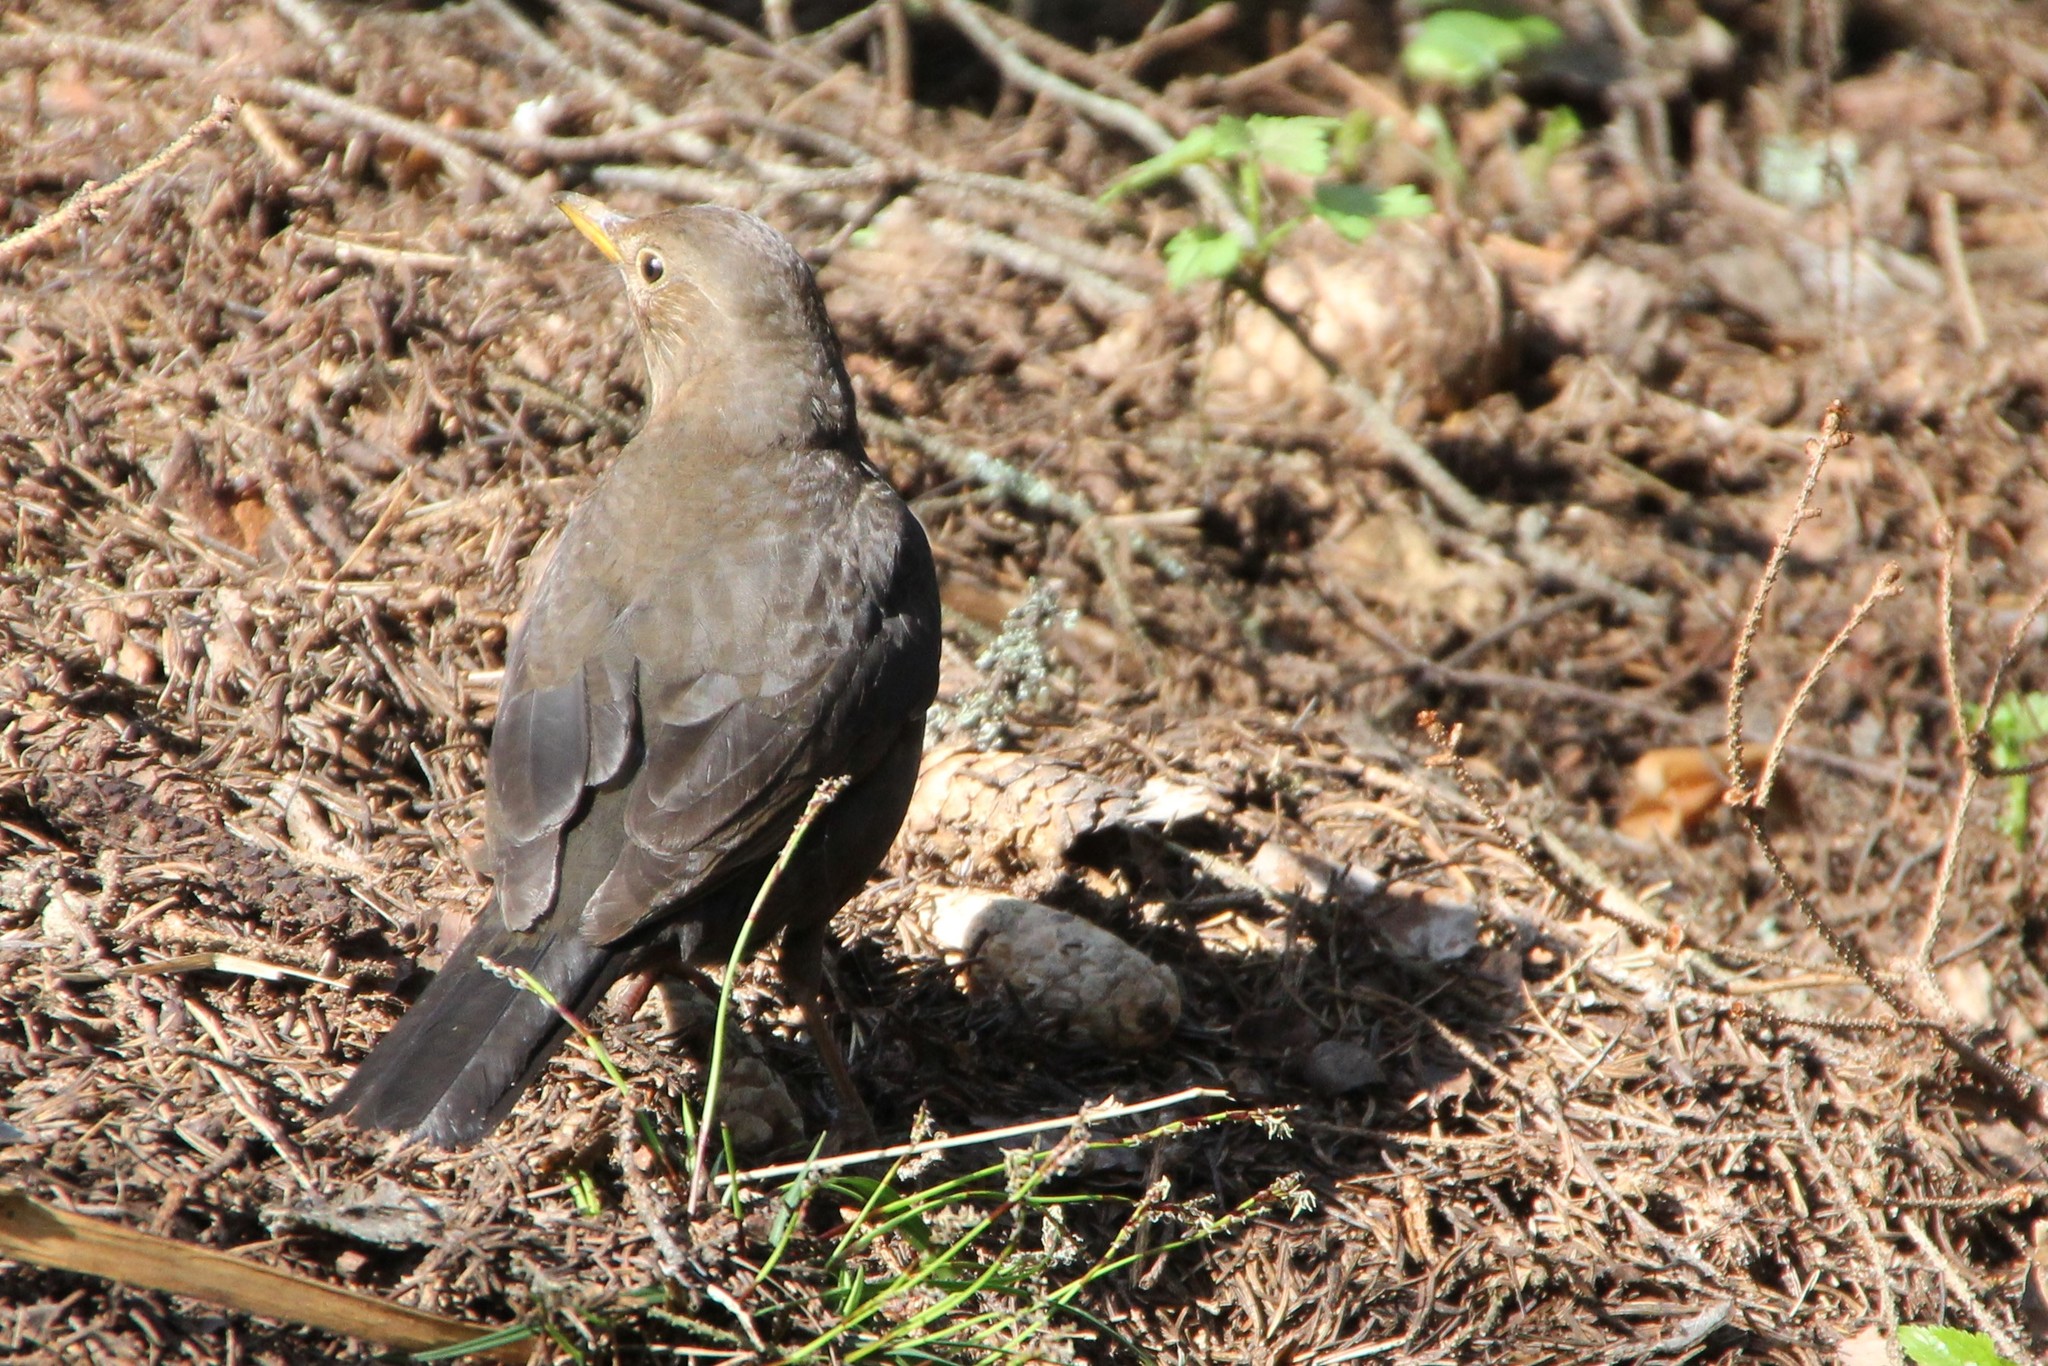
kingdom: Animalia
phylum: Chordata
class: Aves
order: Passeriformes
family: Turdidae
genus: Turdus
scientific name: Turdus merula
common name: Common blackbird
